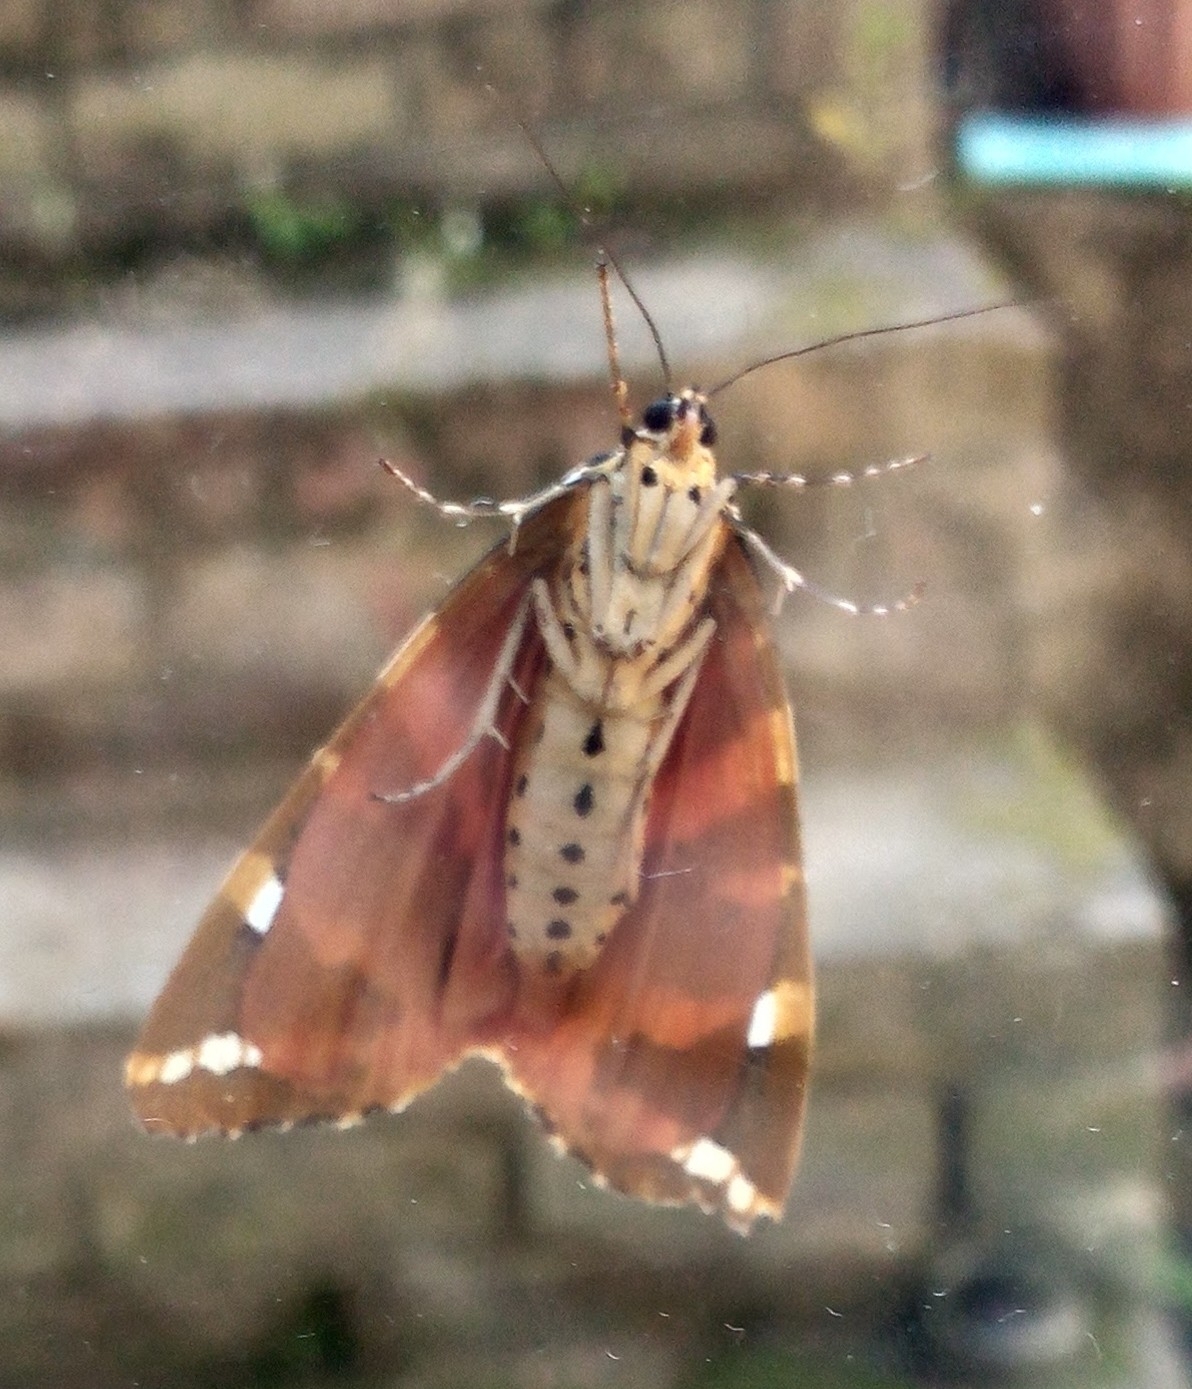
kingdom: Animalia
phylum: Arthropoda
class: Insecta
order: Lepidoptera
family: Erebidae
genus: Euplagia
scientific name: Euplagia quadripunctaria
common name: Jersey tiger
